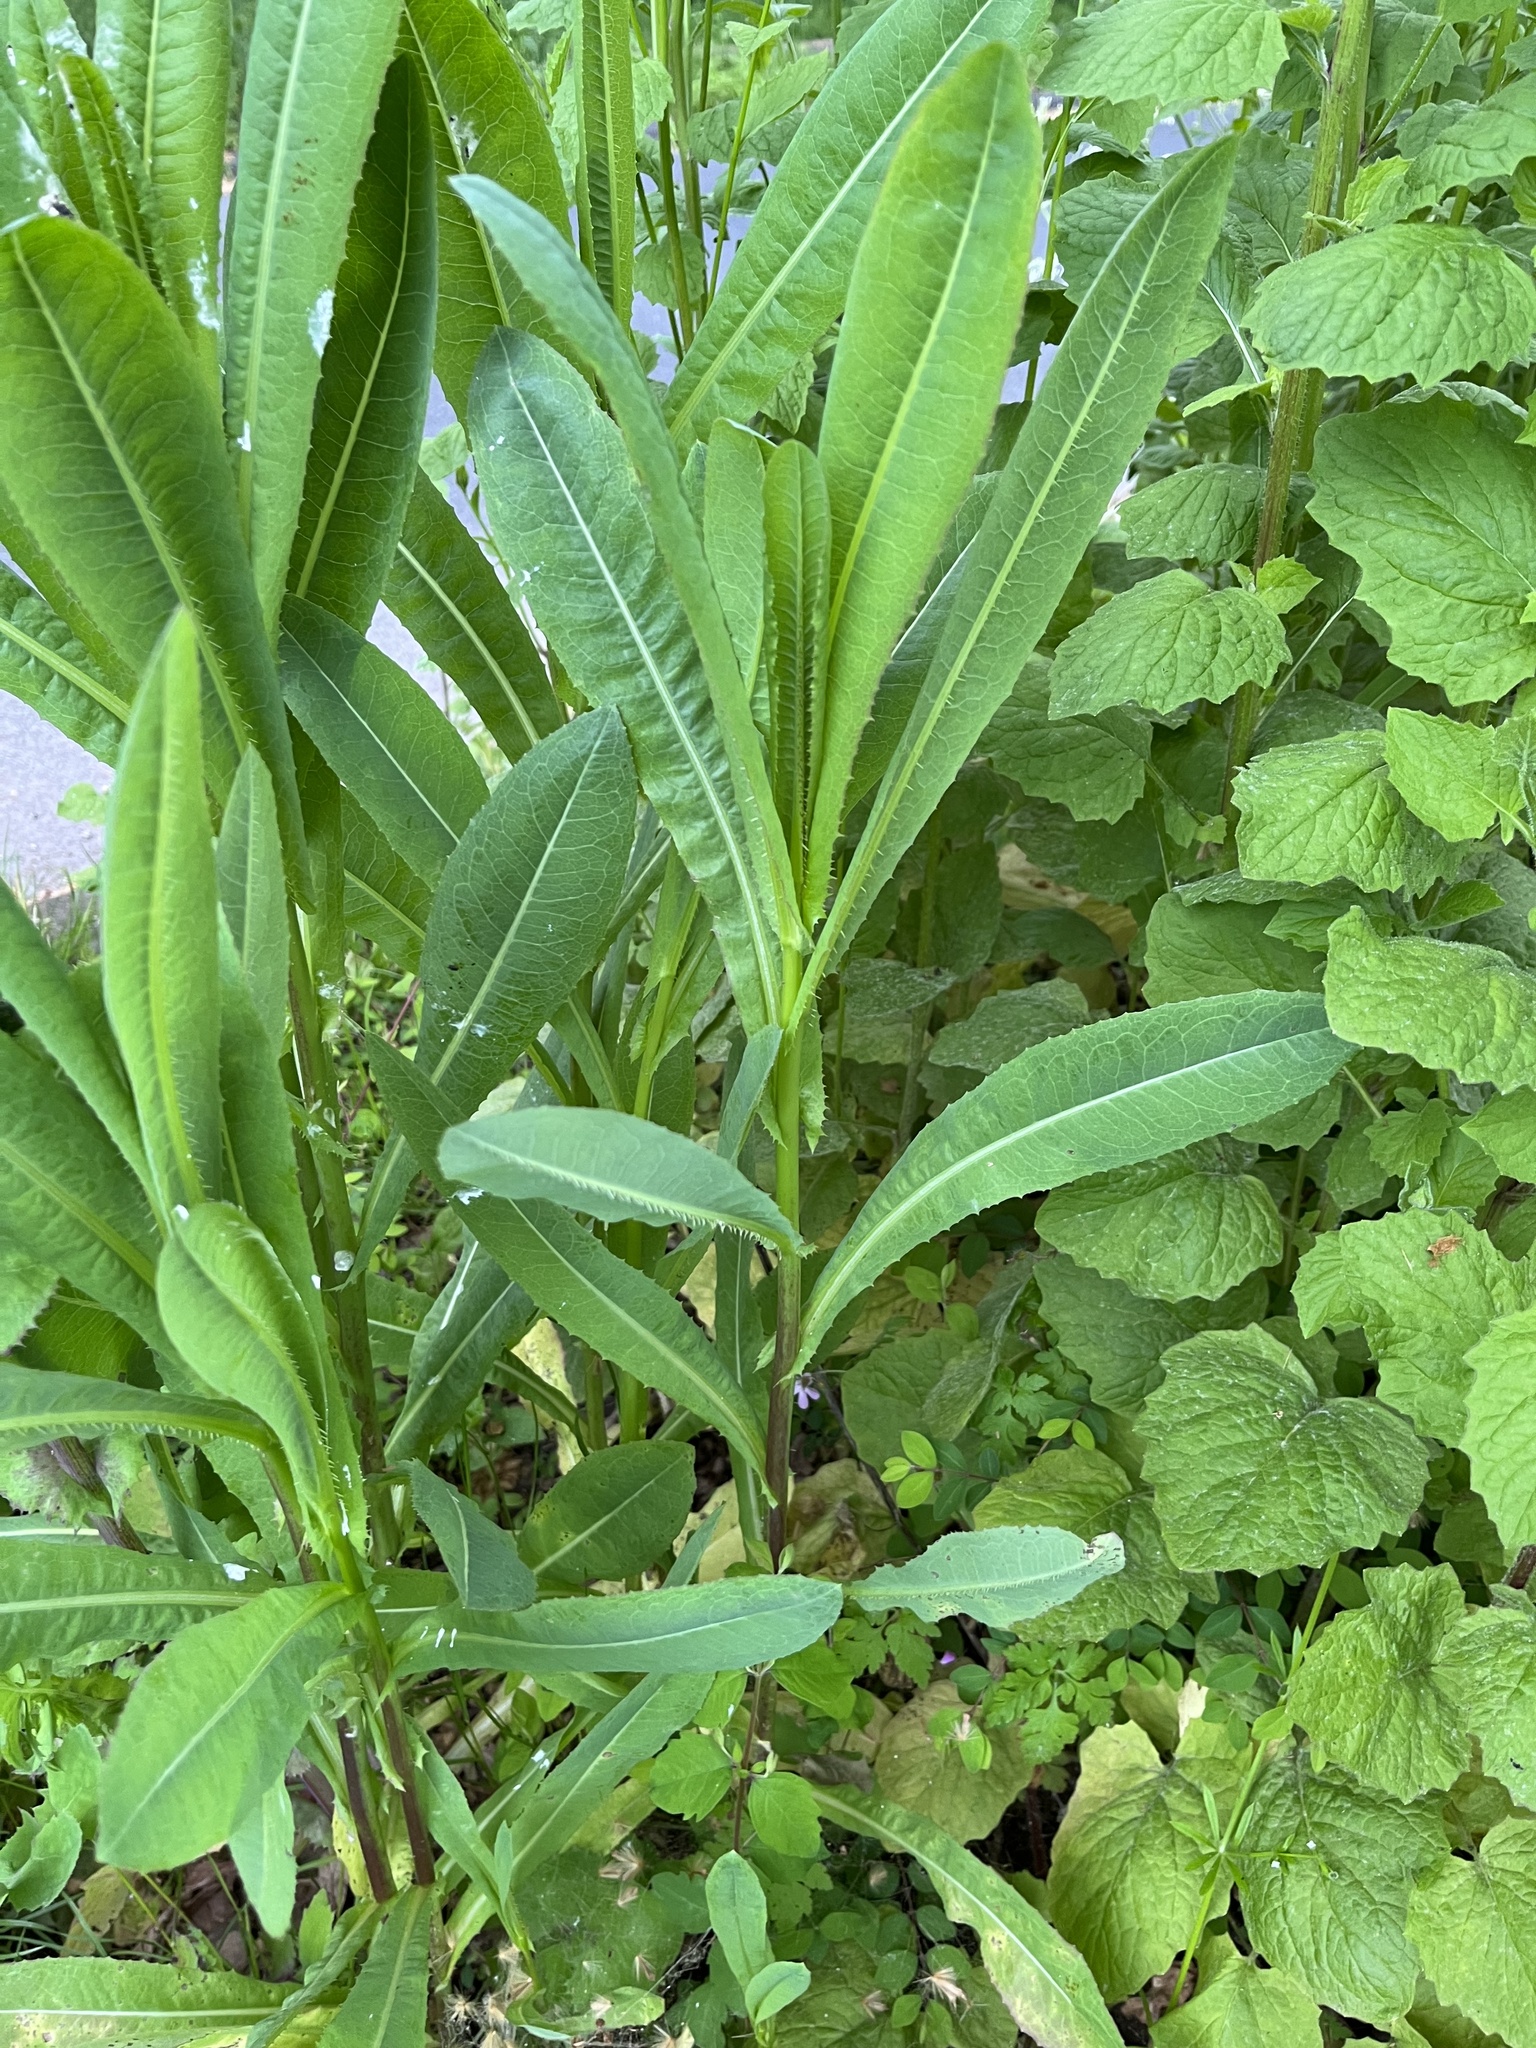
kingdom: Plantae
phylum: Tracheophyta
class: Magnoliopsida
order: Asterales
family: Asteraceae
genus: Lactuca
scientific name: Lactuca serriola
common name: Prickly lettuce
